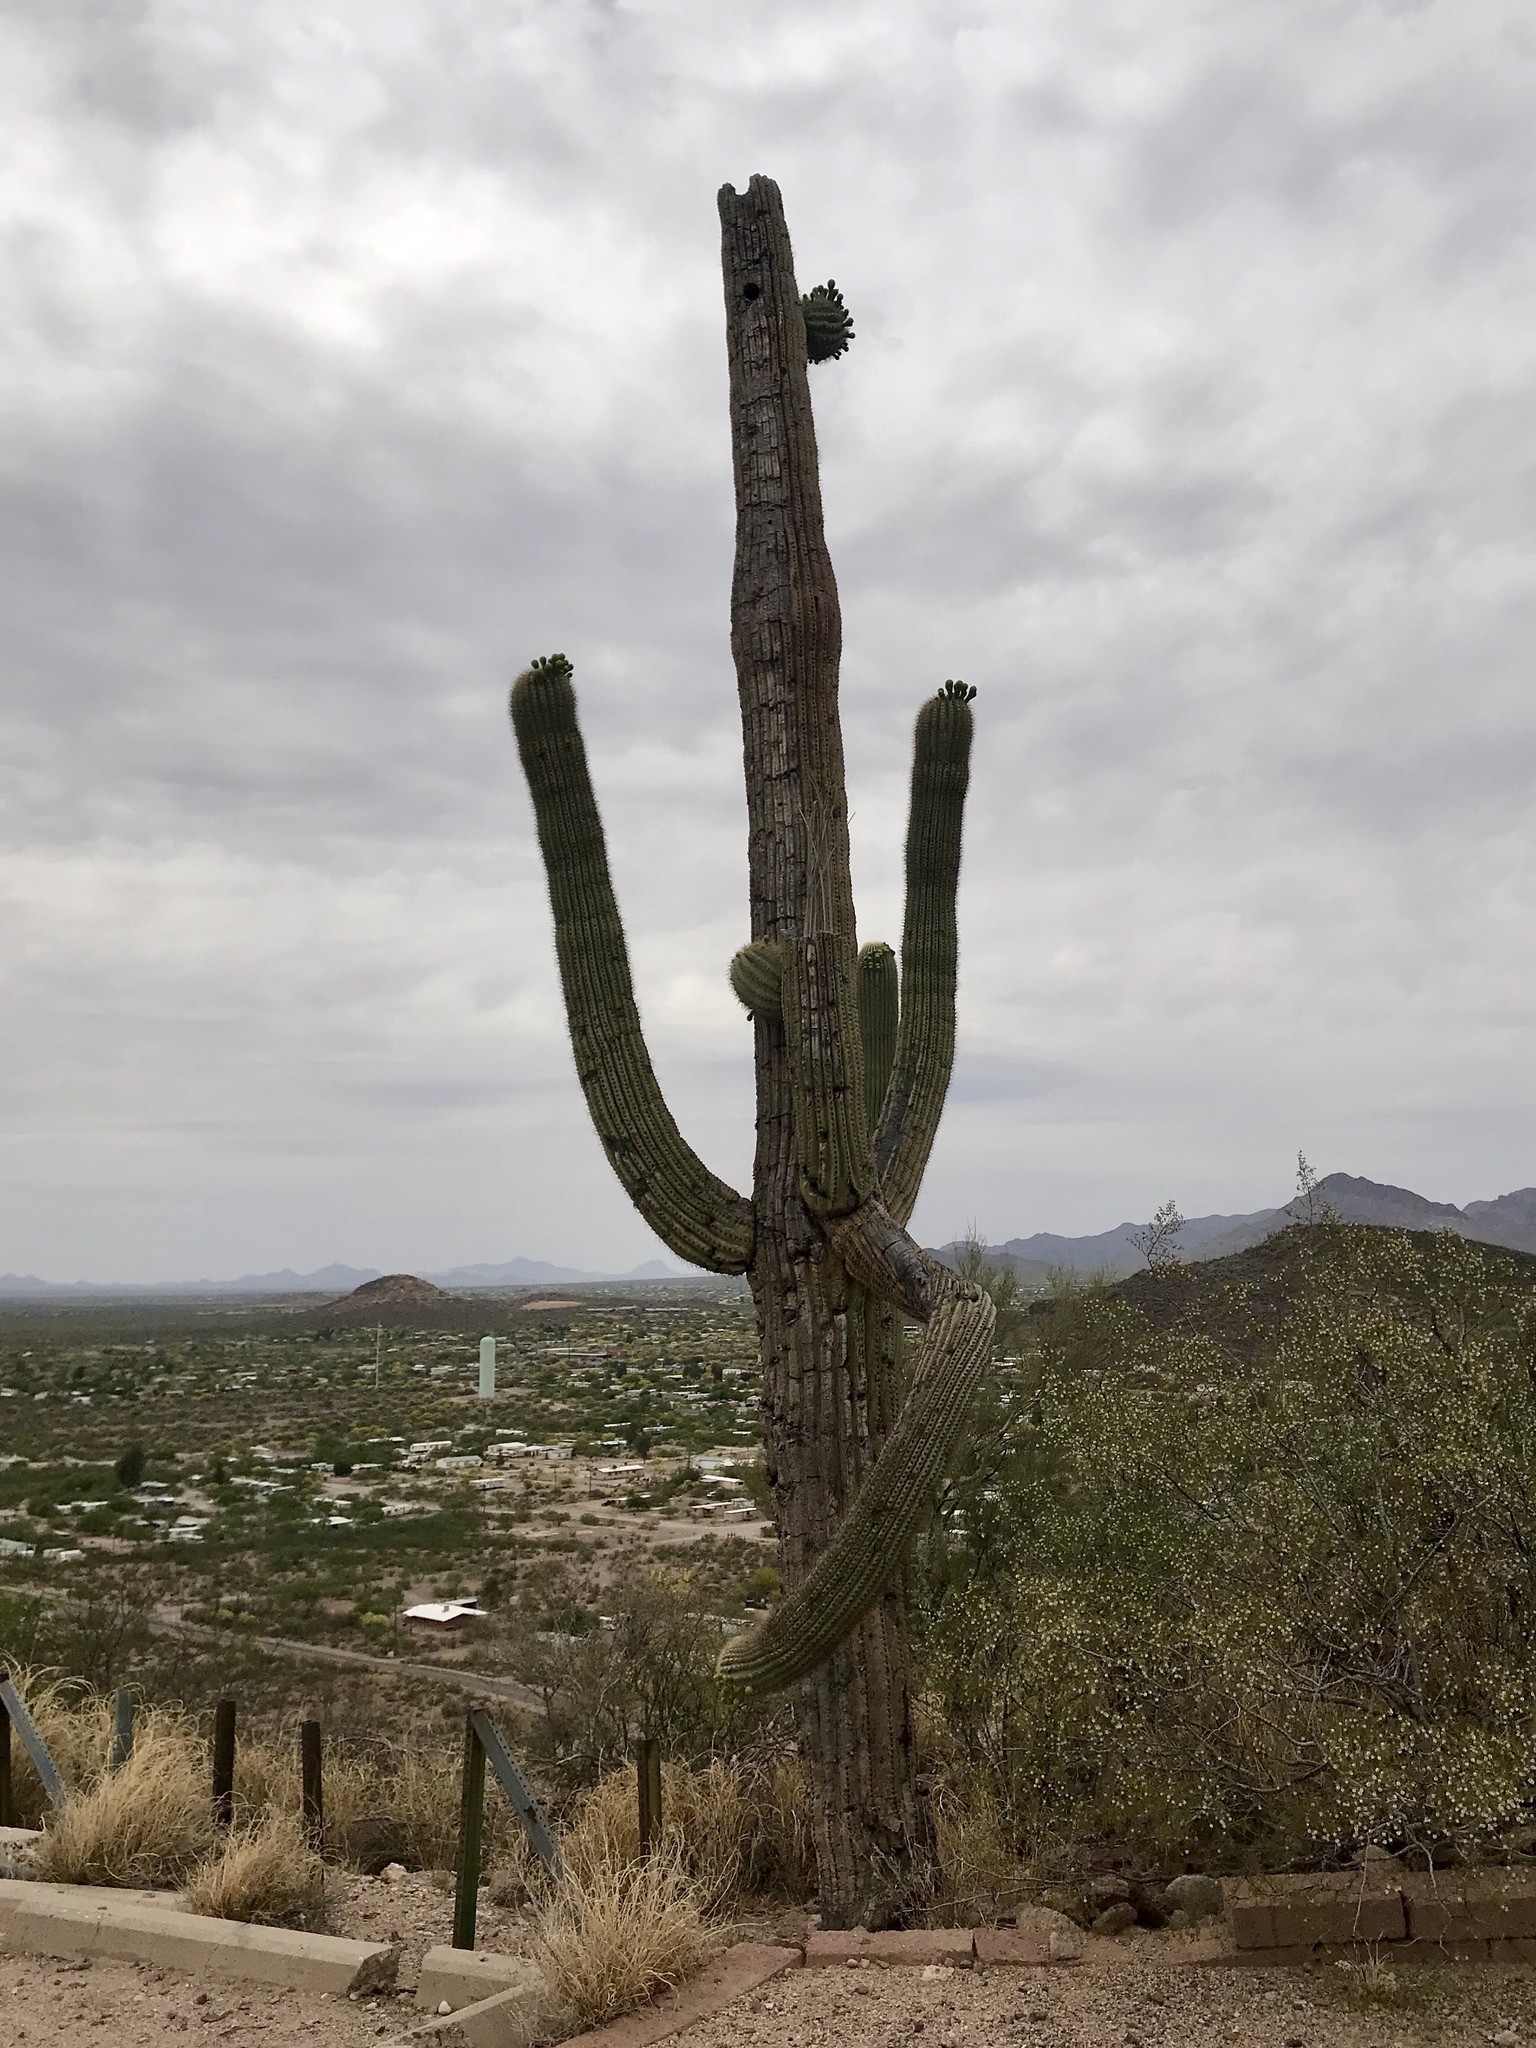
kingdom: Plantae
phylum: Tracheophyta
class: Magnoliopsida
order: Caryophyllales
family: Cactaceae
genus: Carnegiea
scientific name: Carnegiea gigantea
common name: Saguaro
